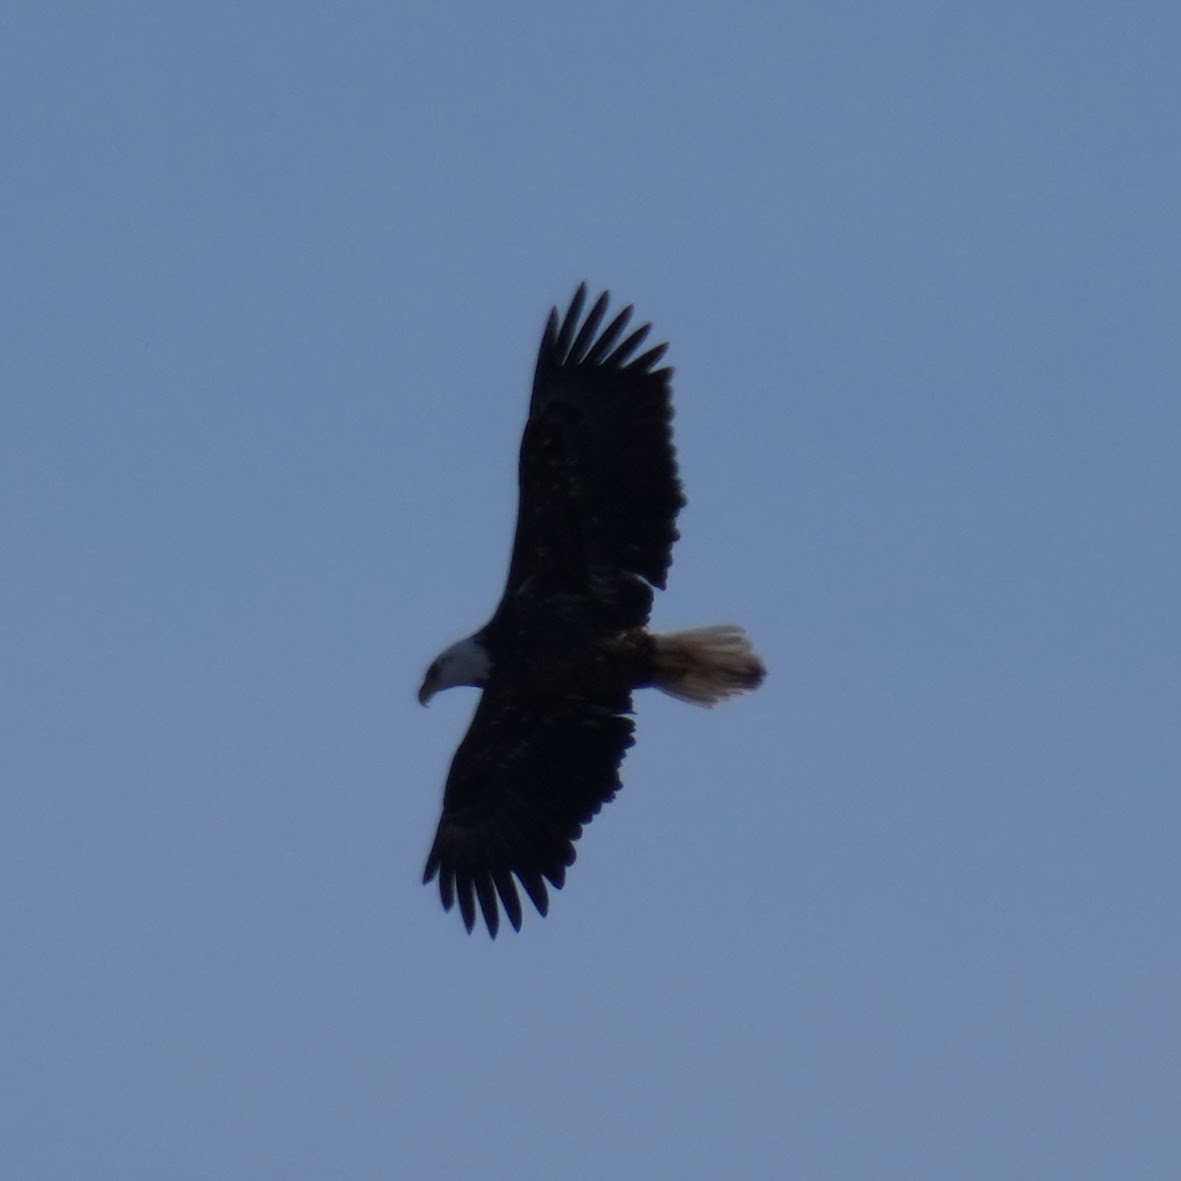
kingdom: Animalia
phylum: Chordata
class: Aves
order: Accipitriformes
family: Accipitridae
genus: Haliaeetus
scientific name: Haliaeetus leucocephalus
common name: Bald eagle
